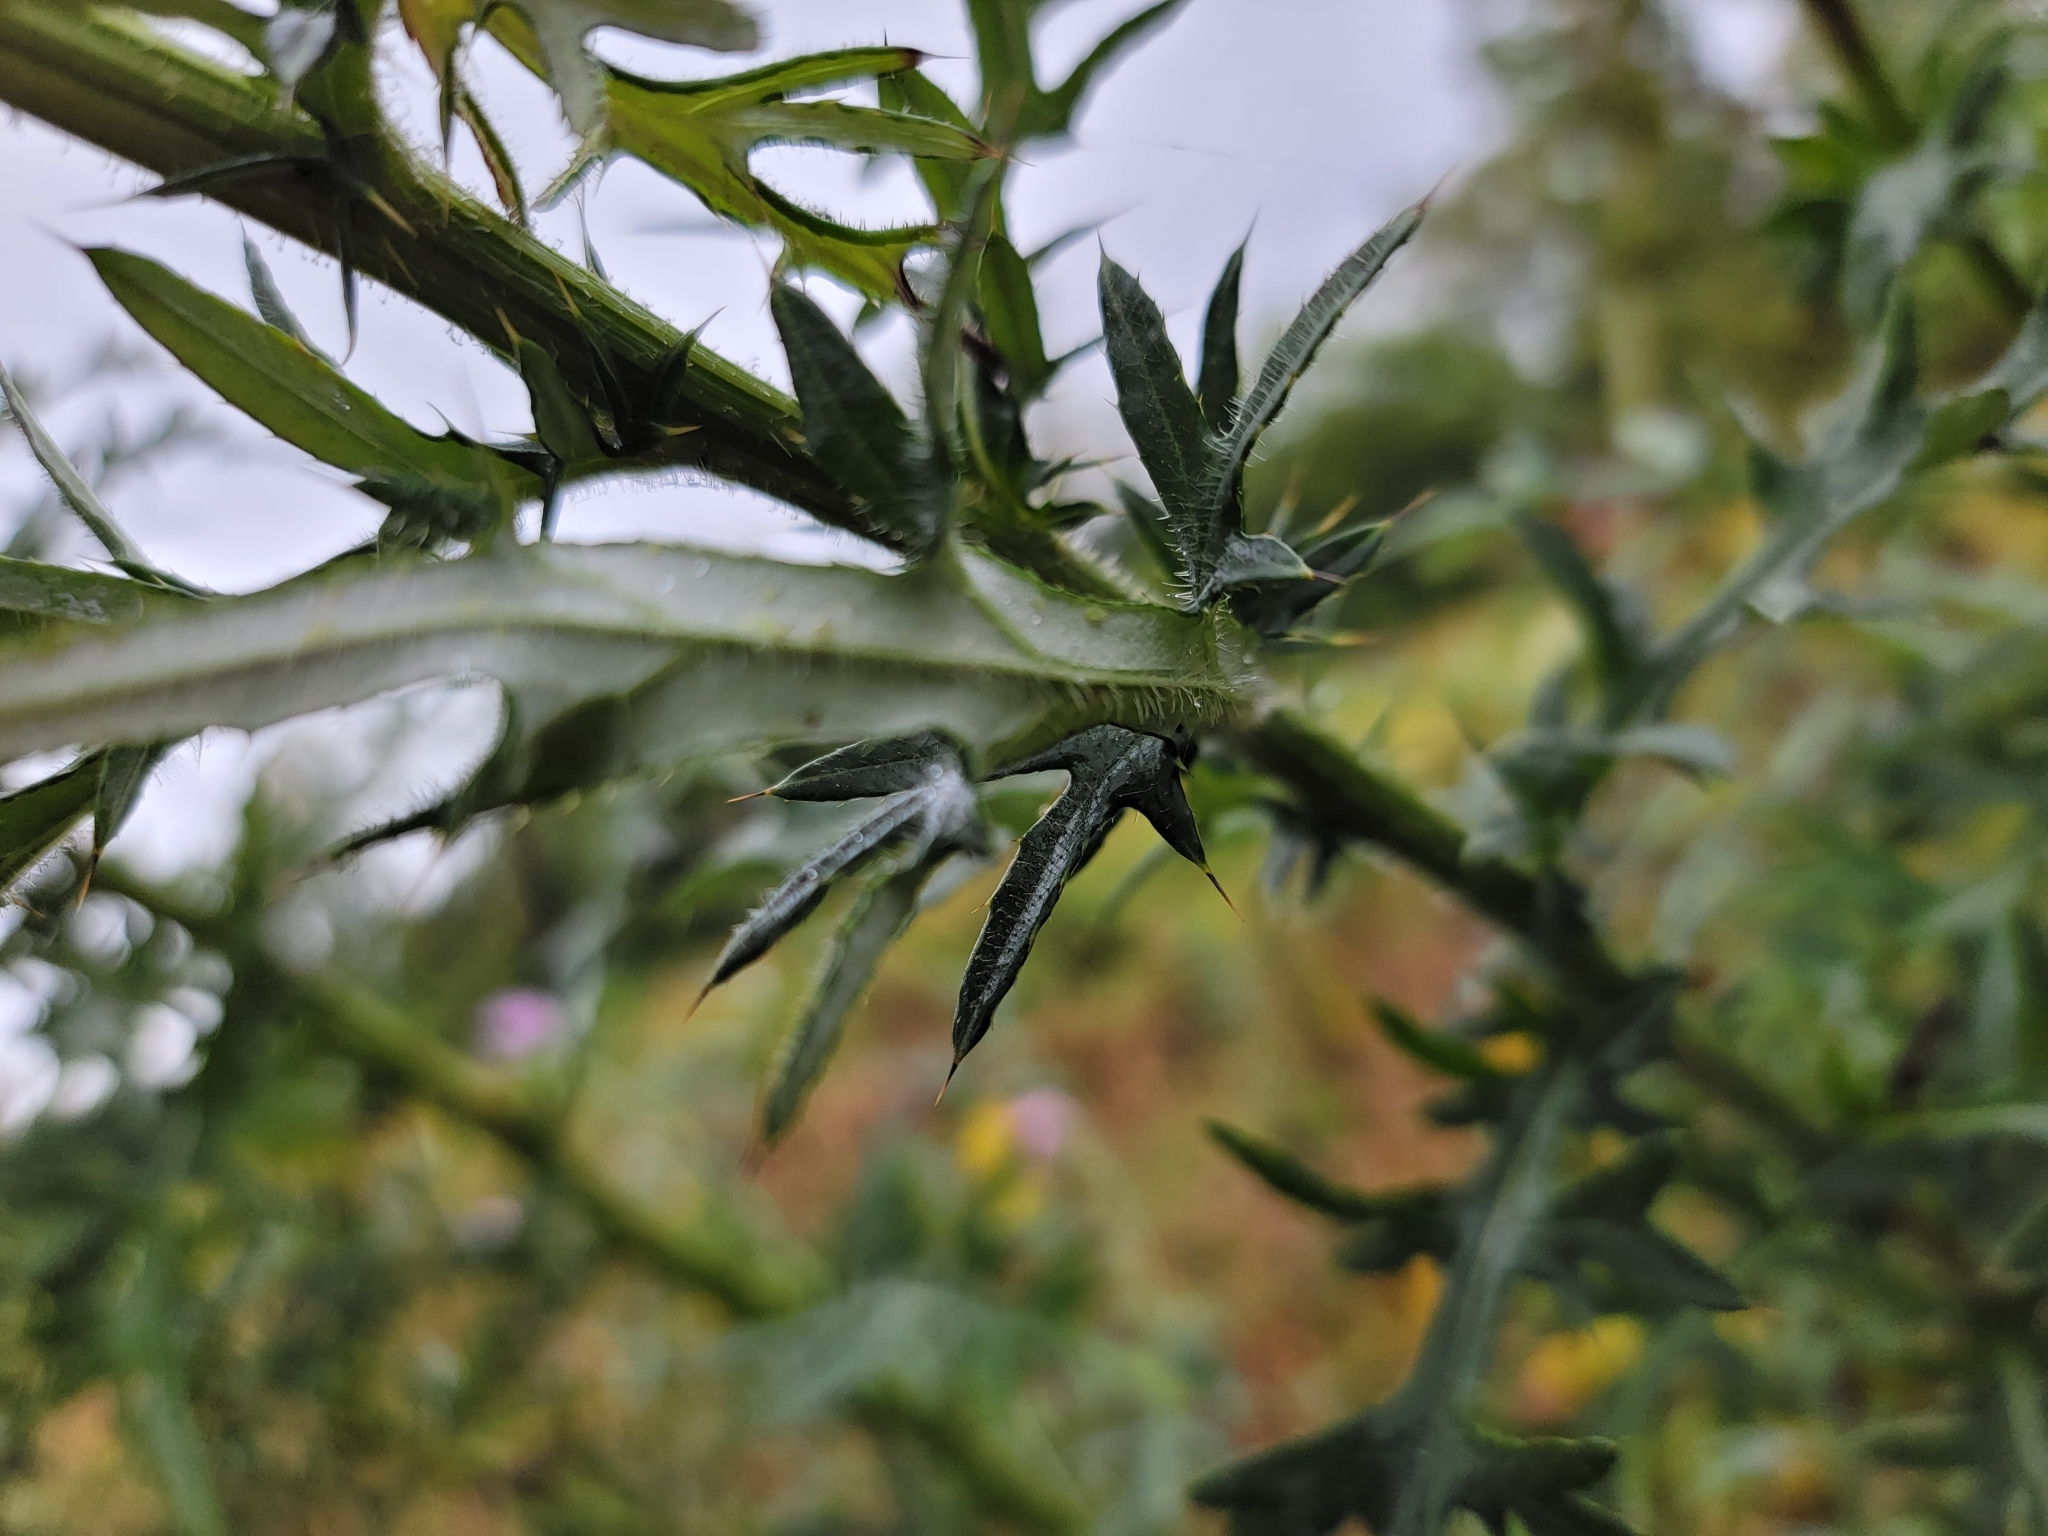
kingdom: Plantae
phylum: Tracheophyta
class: Magnoliopsida
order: Asterales
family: Asteraceae
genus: Cirsium
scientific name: Cirsium discolor
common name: Field thistle
